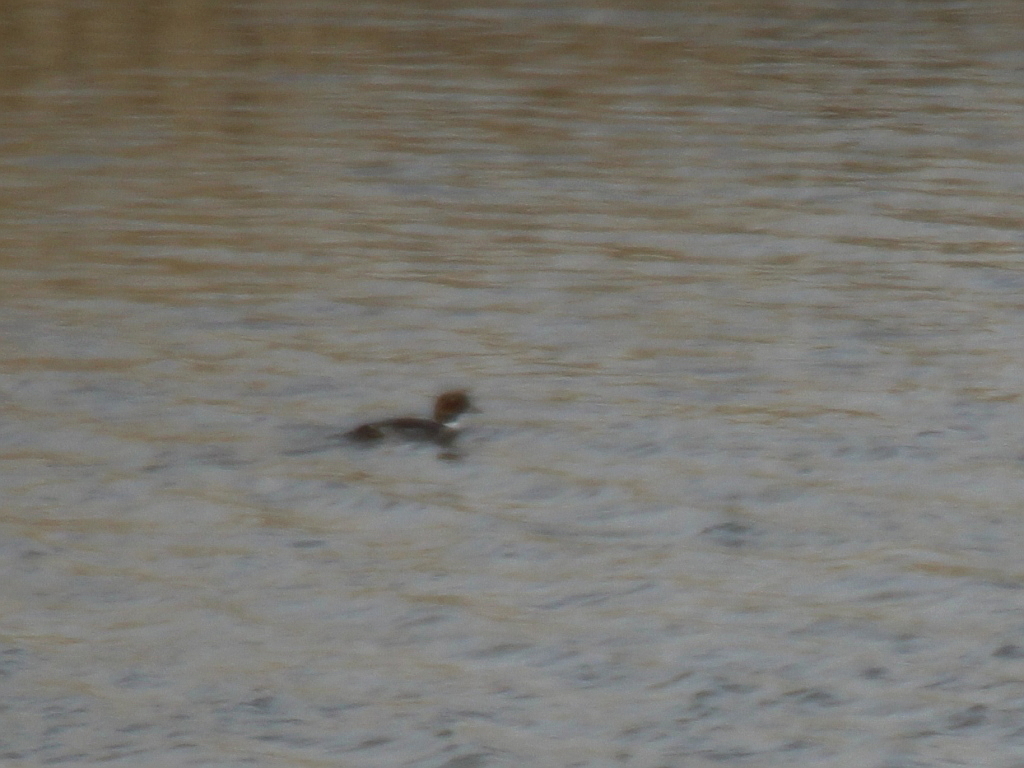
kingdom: Animalia
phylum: Chordata
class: Aves
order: Anseriformes
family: Anatidae
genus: Bucephala
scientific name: Bucephala clangula
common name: Common goldeneye
